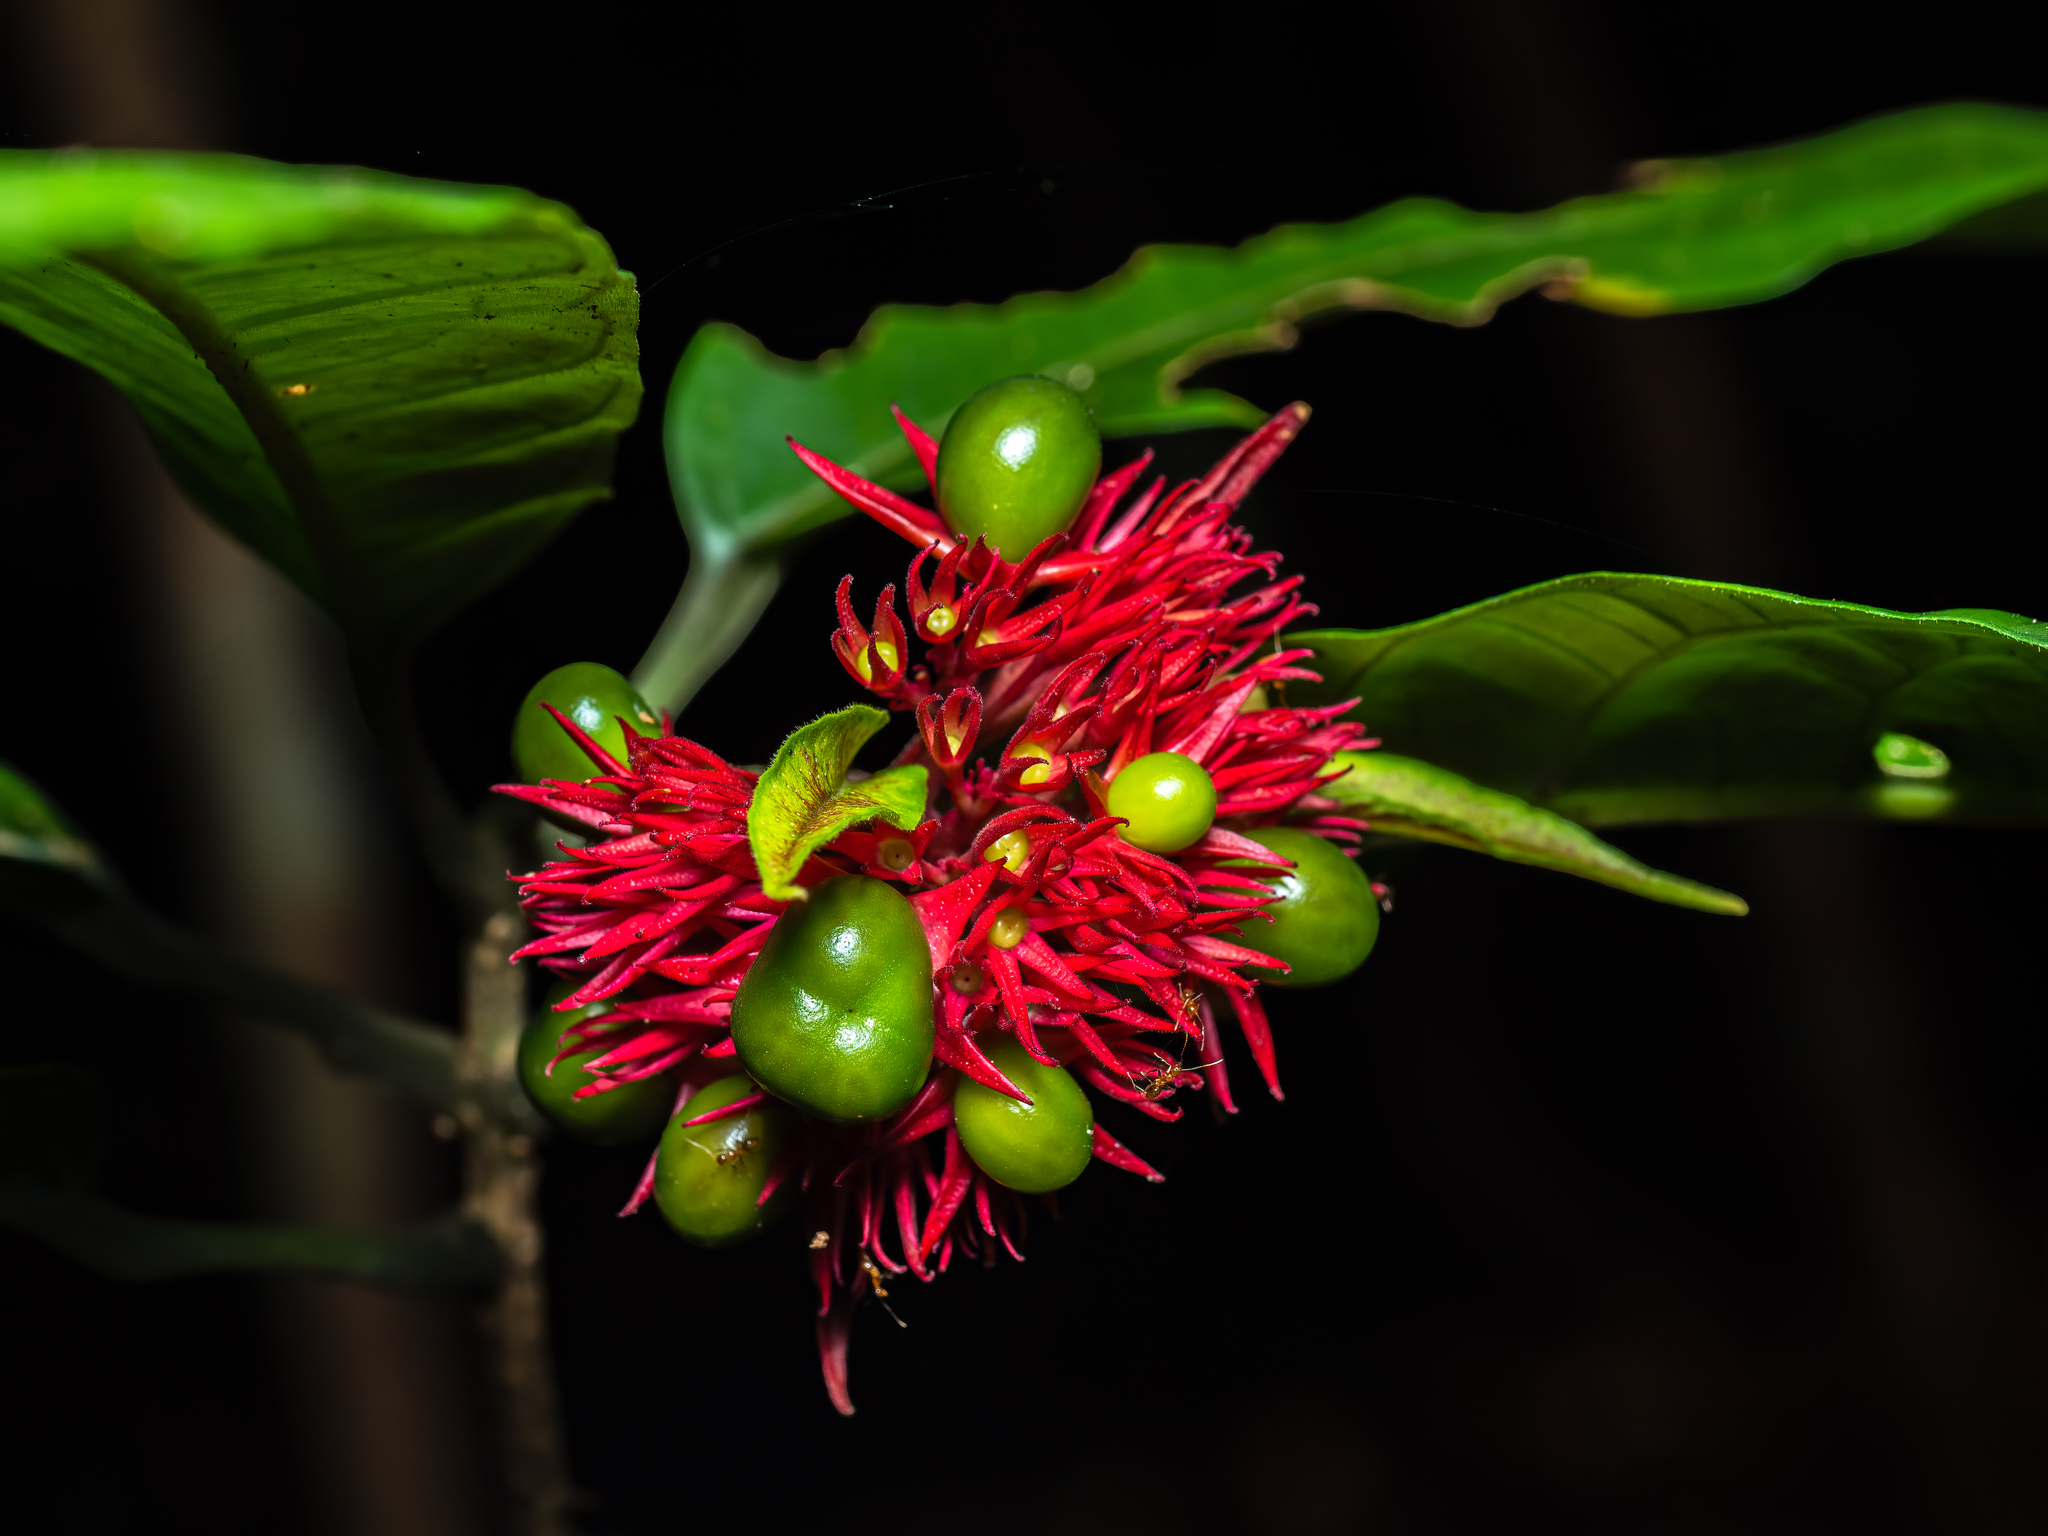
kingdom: Plantae
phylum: Tracheophyta
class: Magnoliopsida
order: Lamiales
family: Lamiaceae
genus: Clerodendrum
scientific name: Clerodendrum deflexum
